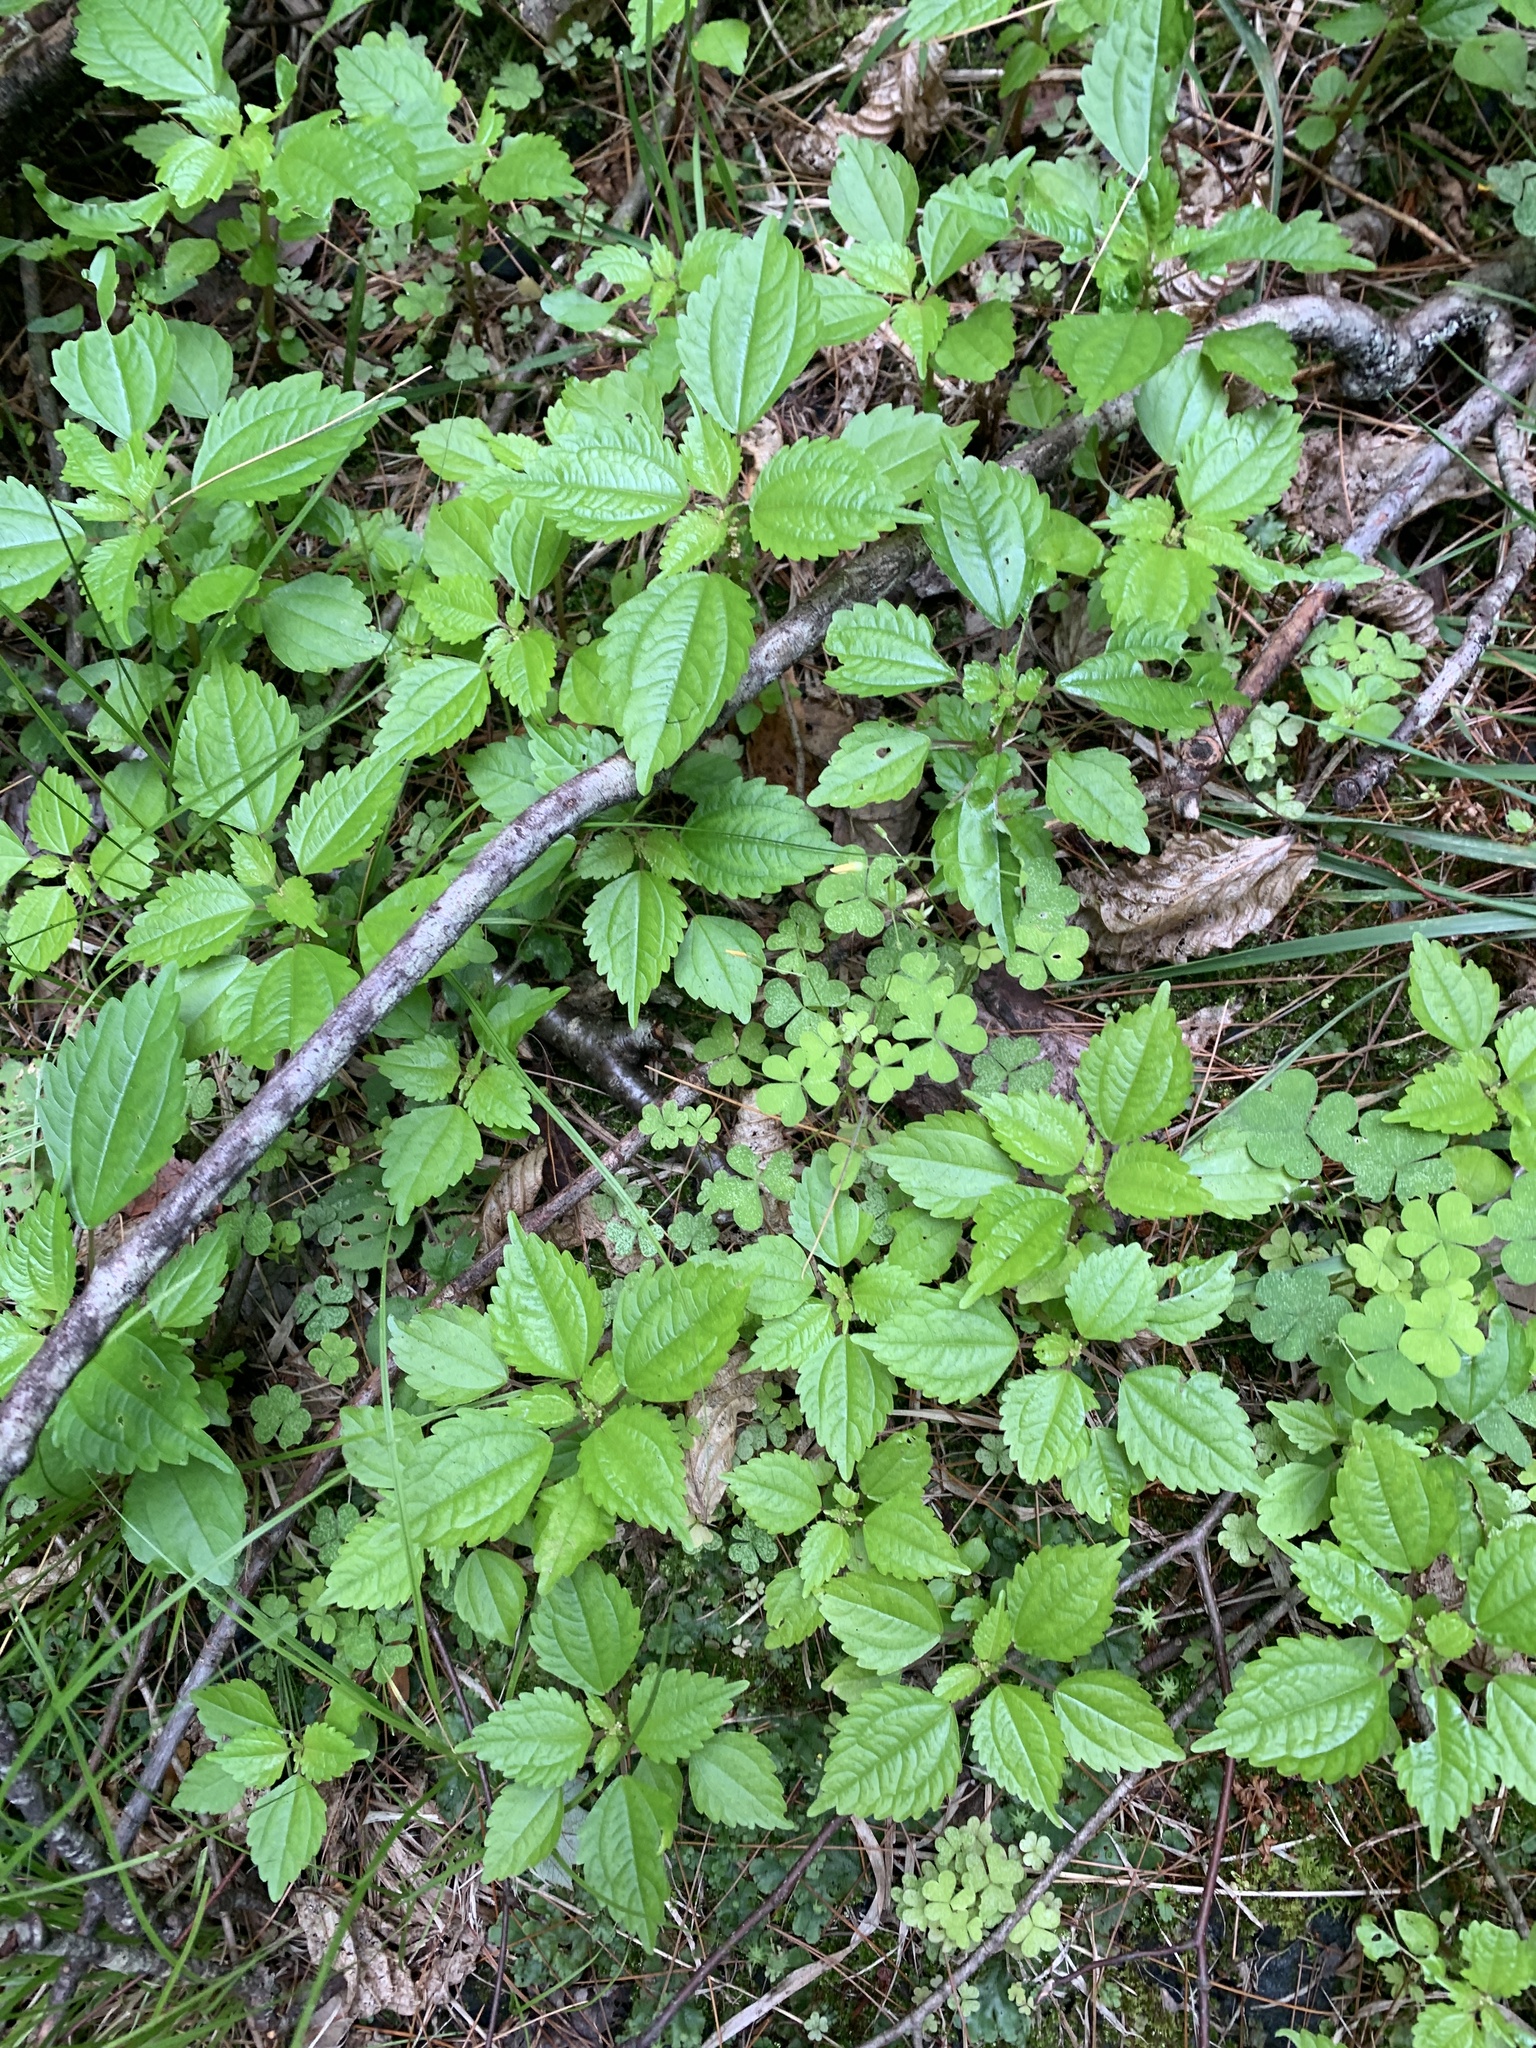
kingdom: Plantae
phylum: Tracheophyta
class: Magnoliopsida
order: Rosales
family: Urticaceae
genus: Pilea
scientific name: Pilea pumila
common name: Clearweed
